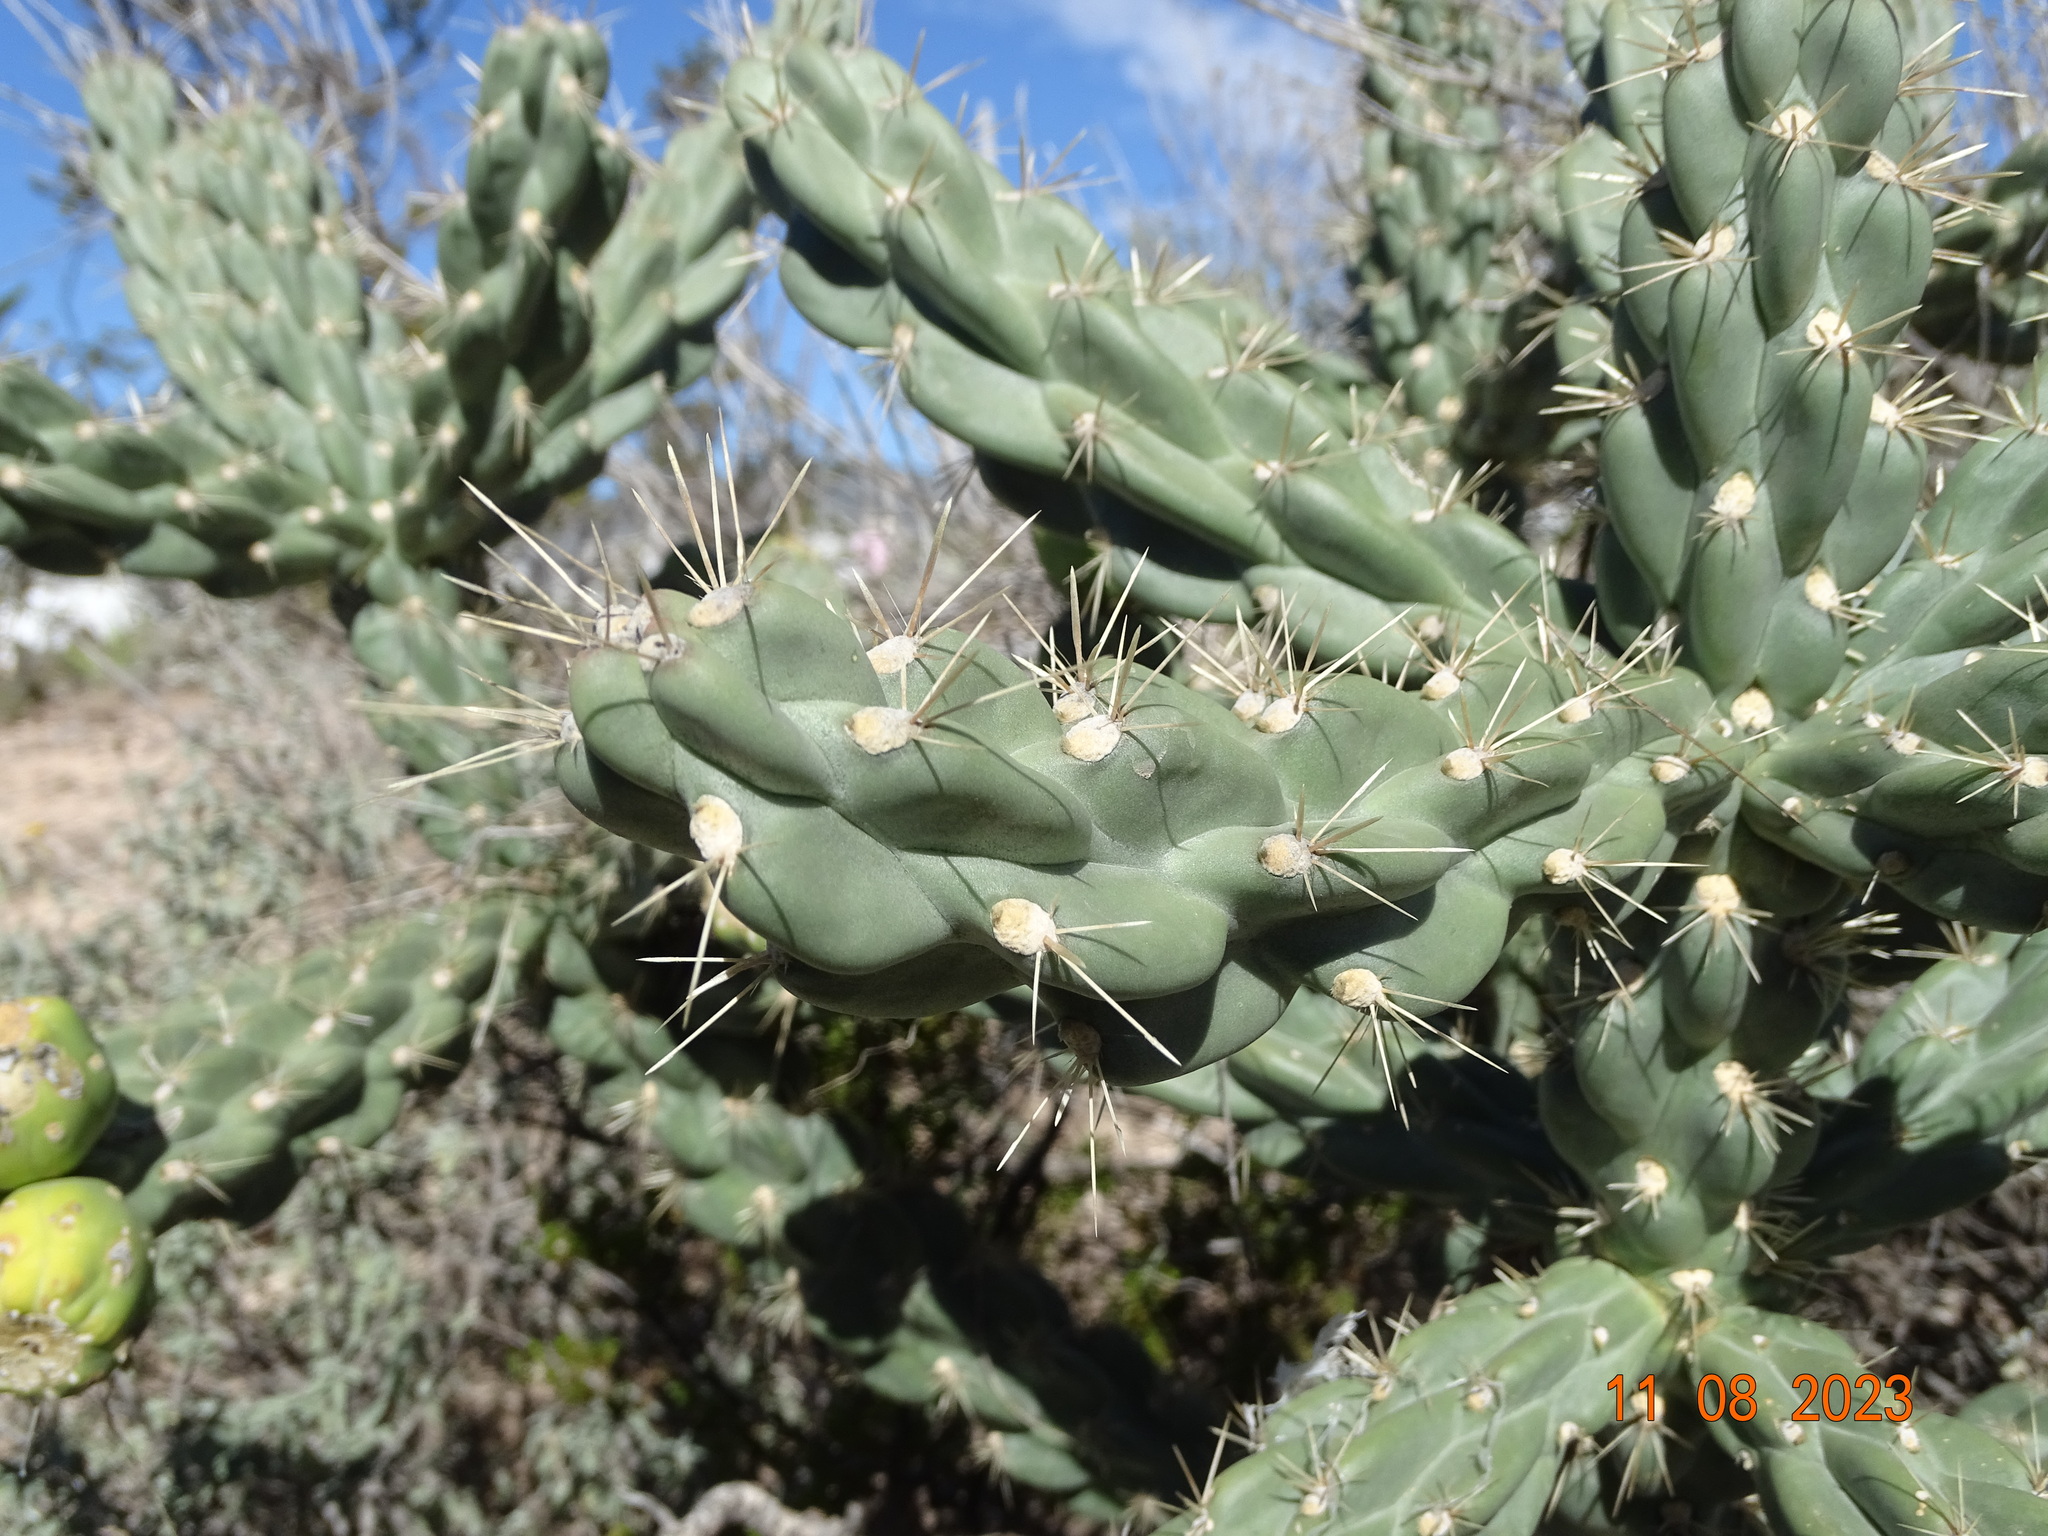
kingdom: Plantae
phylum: Tracheophyta
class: Magnoliopsida
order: Caryophyllales
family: Cactaceae
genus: Cylindropuntia
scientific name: Cylindropuntia imbricata
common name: Candelabrum cactus
